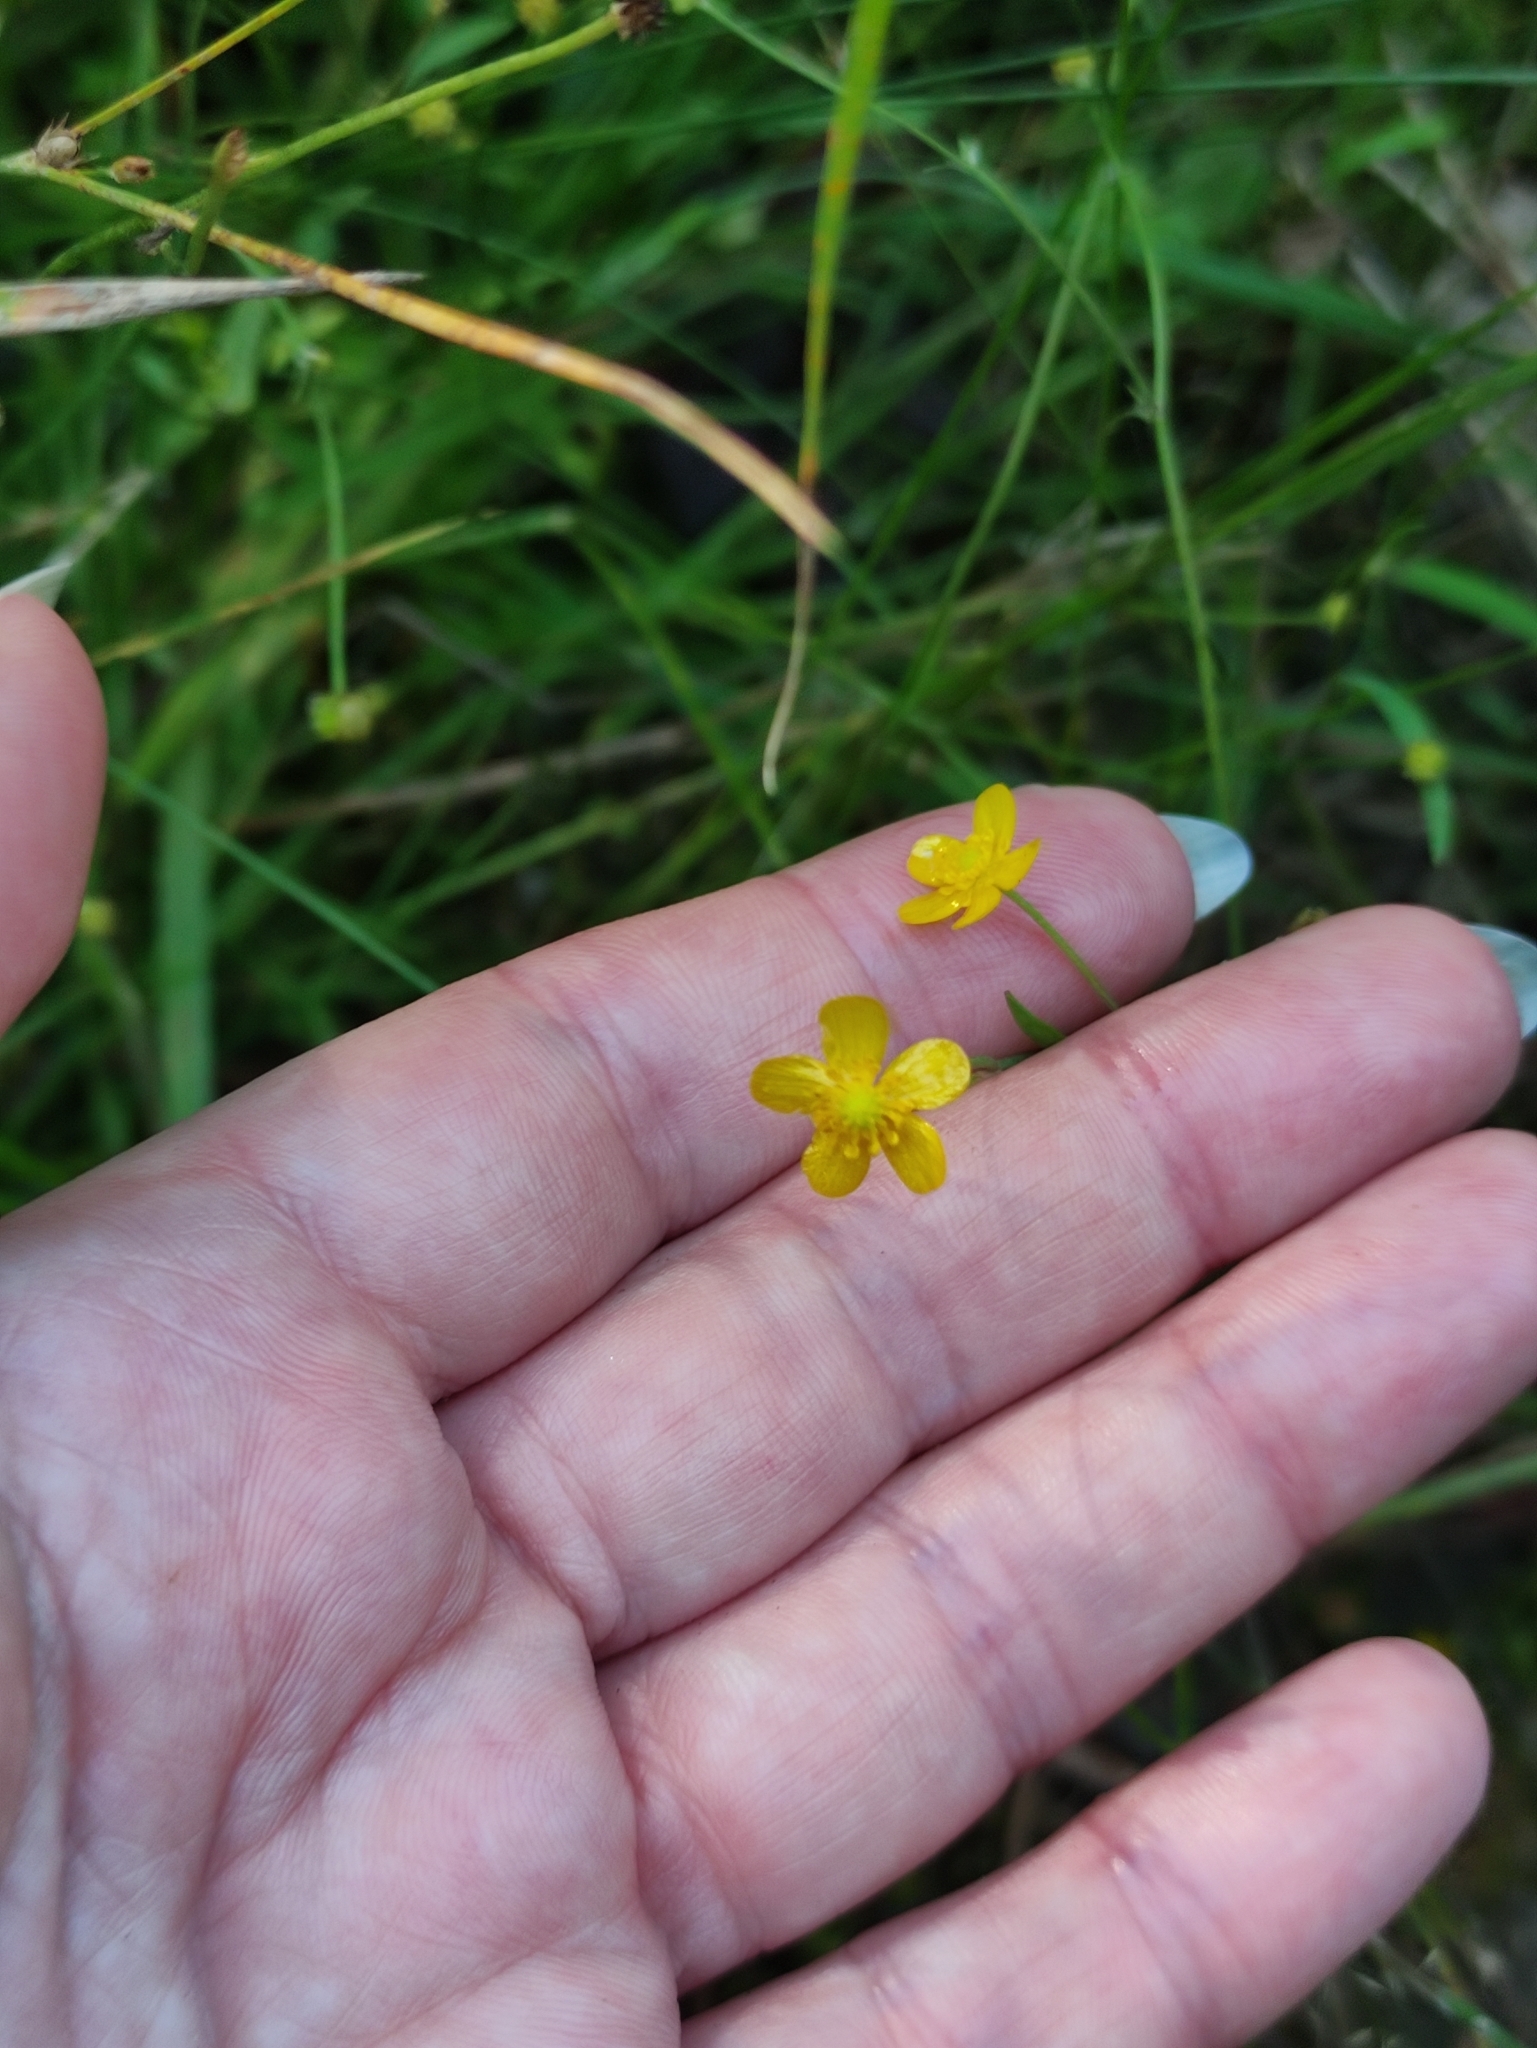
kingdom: Plantae
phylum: Tracheophyta
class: Magnoliopsida
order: Ranunculales
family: Ranunculaceae
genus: Ranunculus
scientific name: Ranunculus flammula
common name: Lesser spearwort
